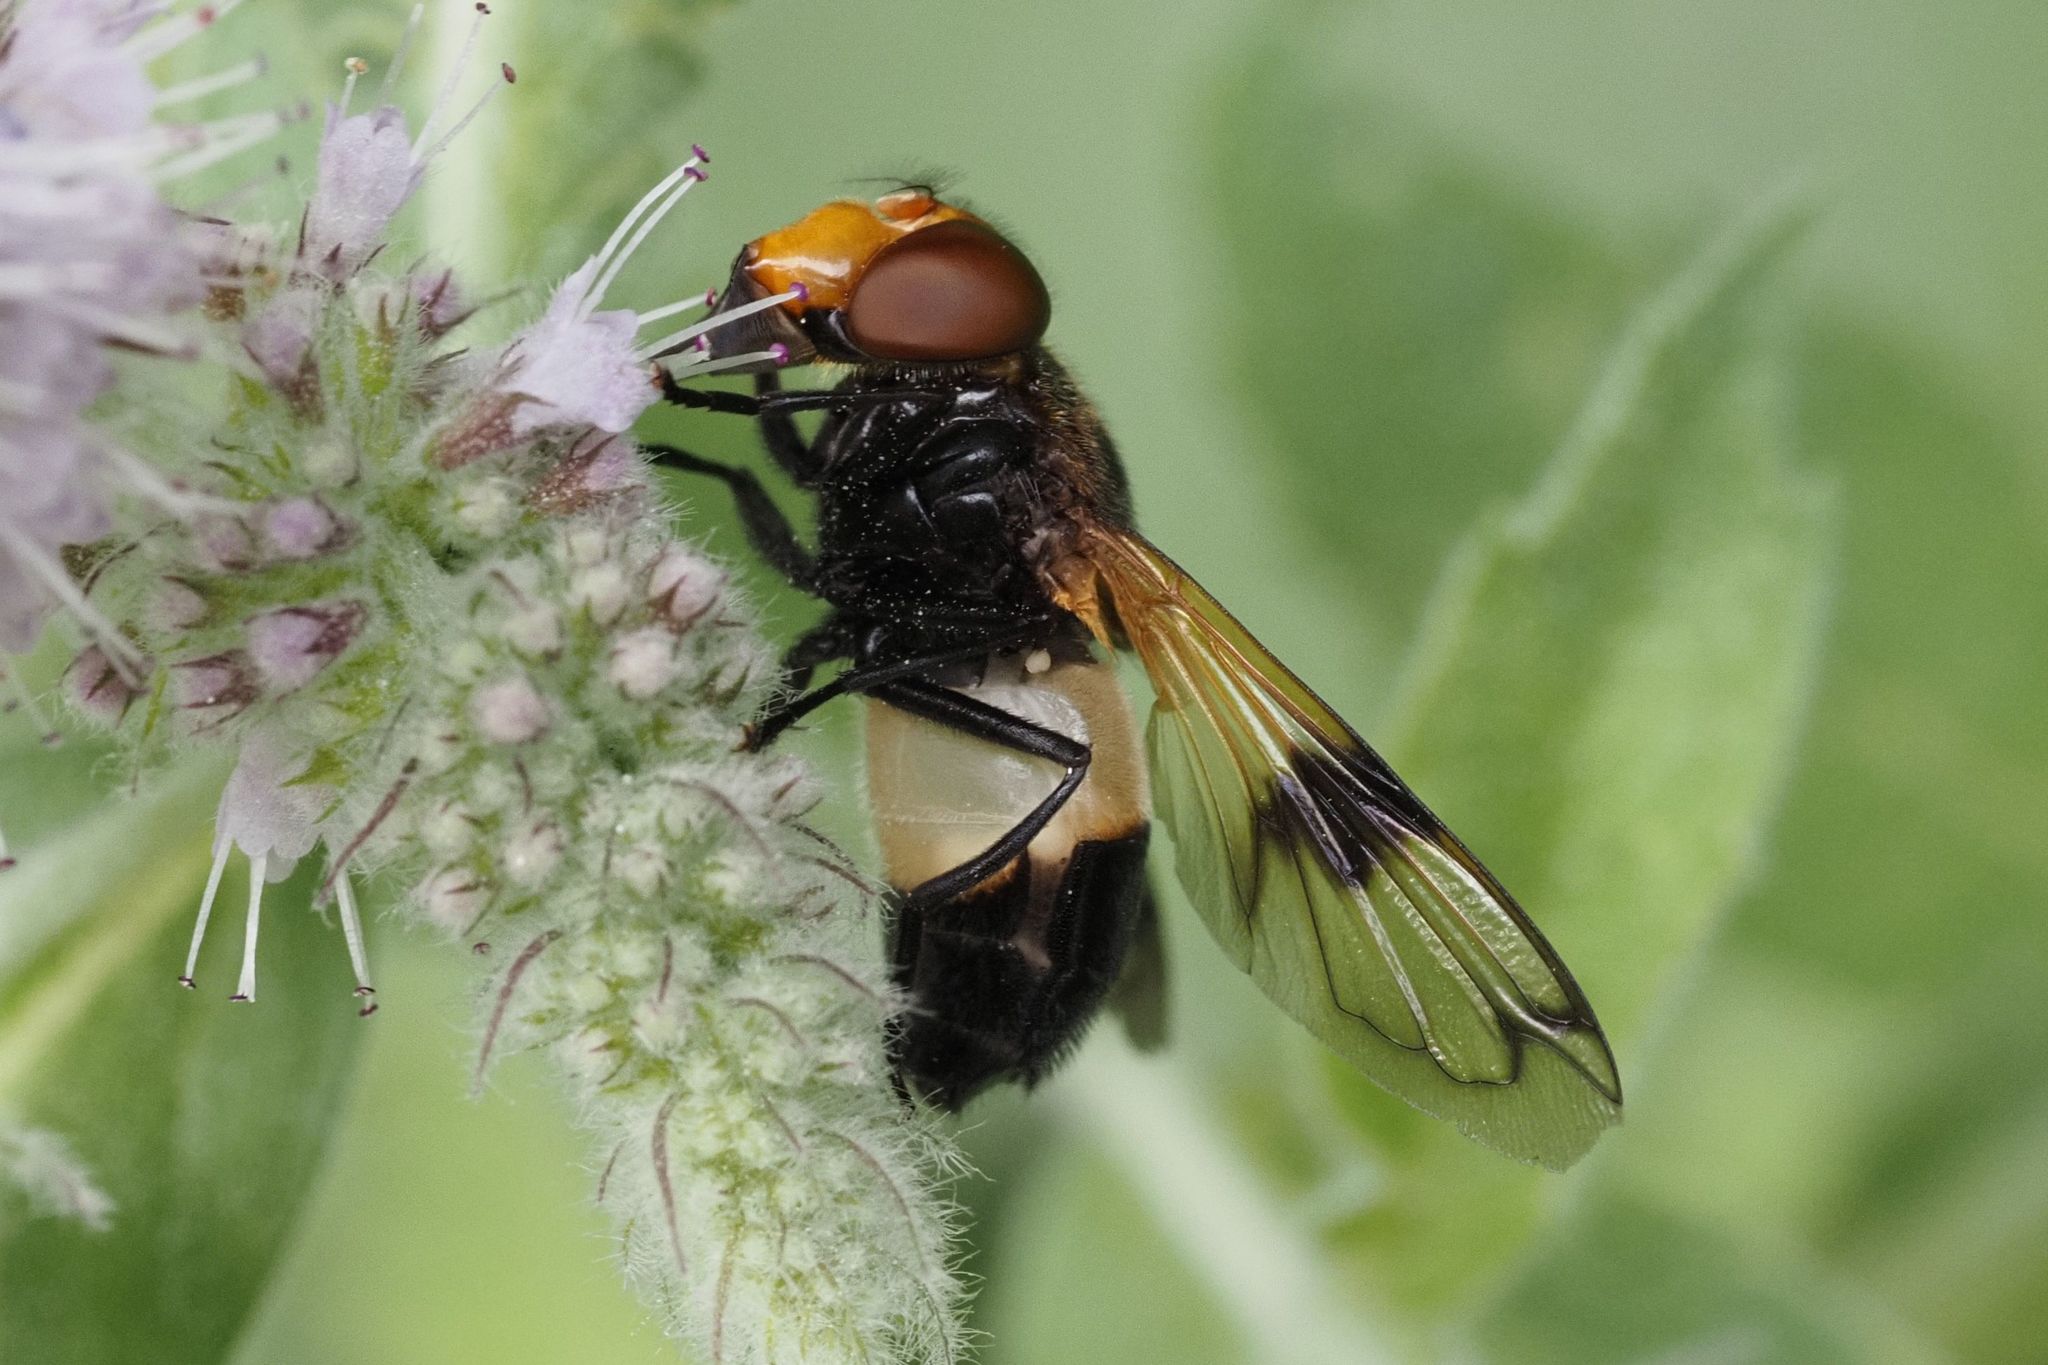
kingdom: Animalia
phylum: Arthropoda
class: Insecta
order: Diptera
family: Syrphidae
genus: Volucella
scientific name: Volucella pellucens
